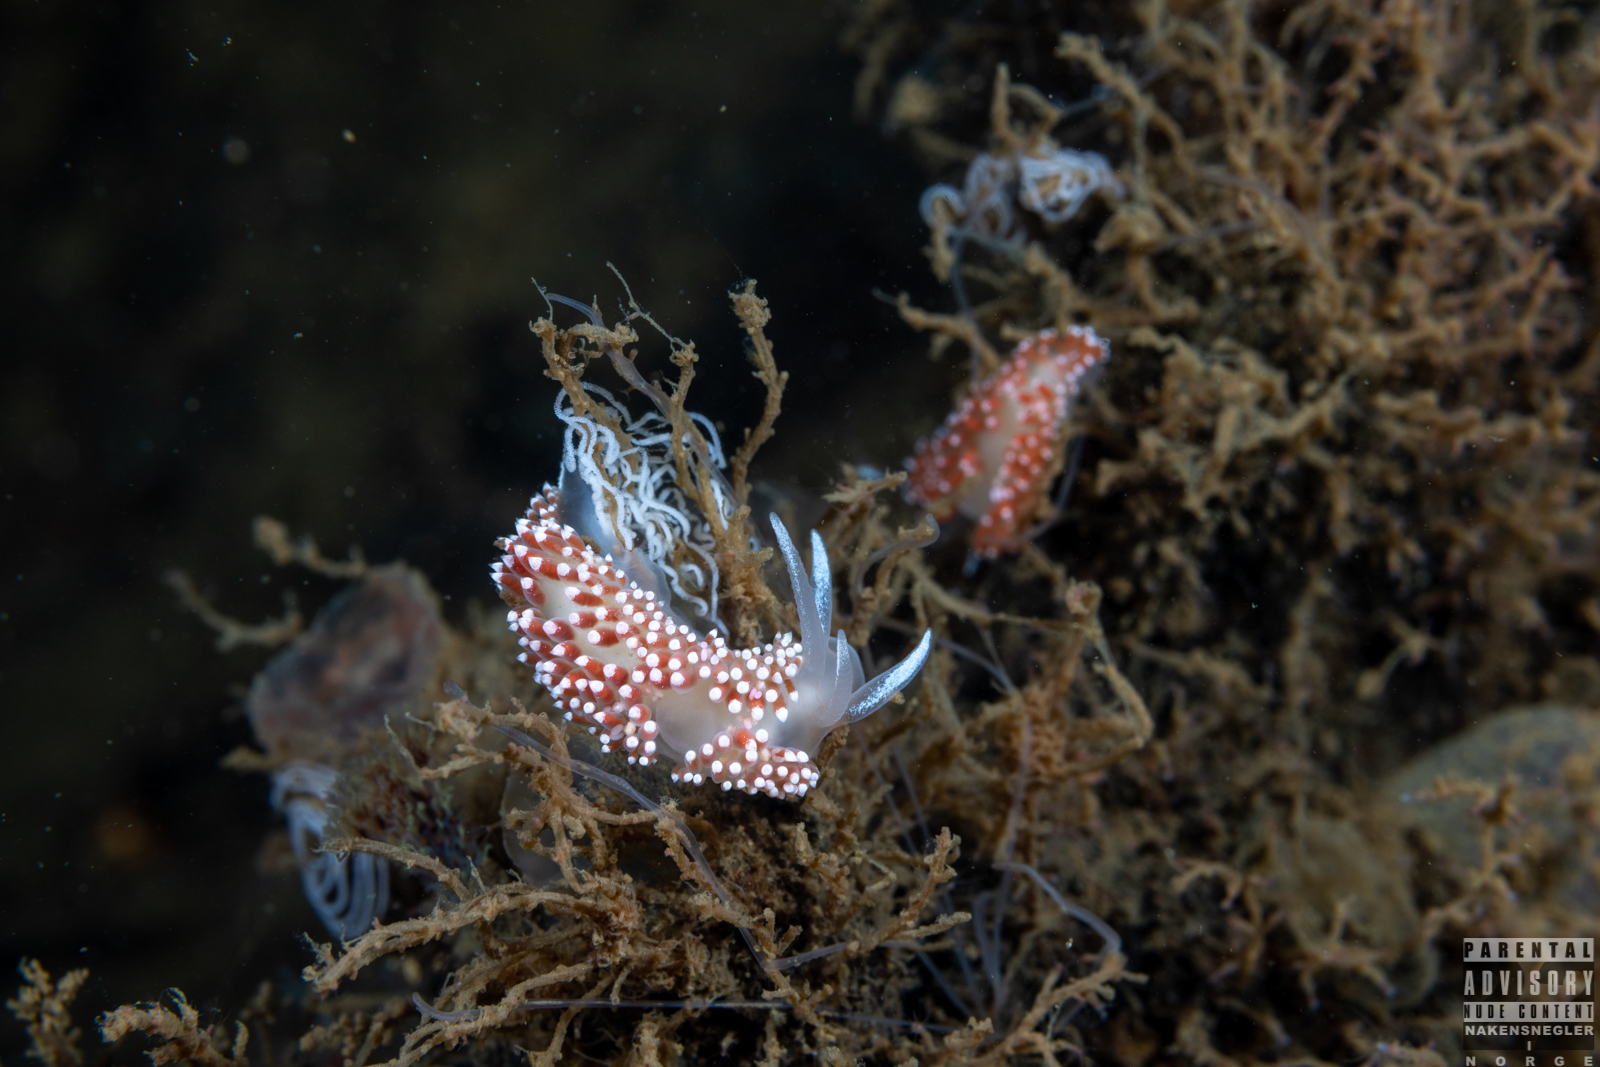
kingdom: Animalia
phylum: Mollusca
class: Gastropoda
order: Nudibranchia
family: Coryphellidae
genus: Coryphella
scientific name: Coryphella verrucosa
